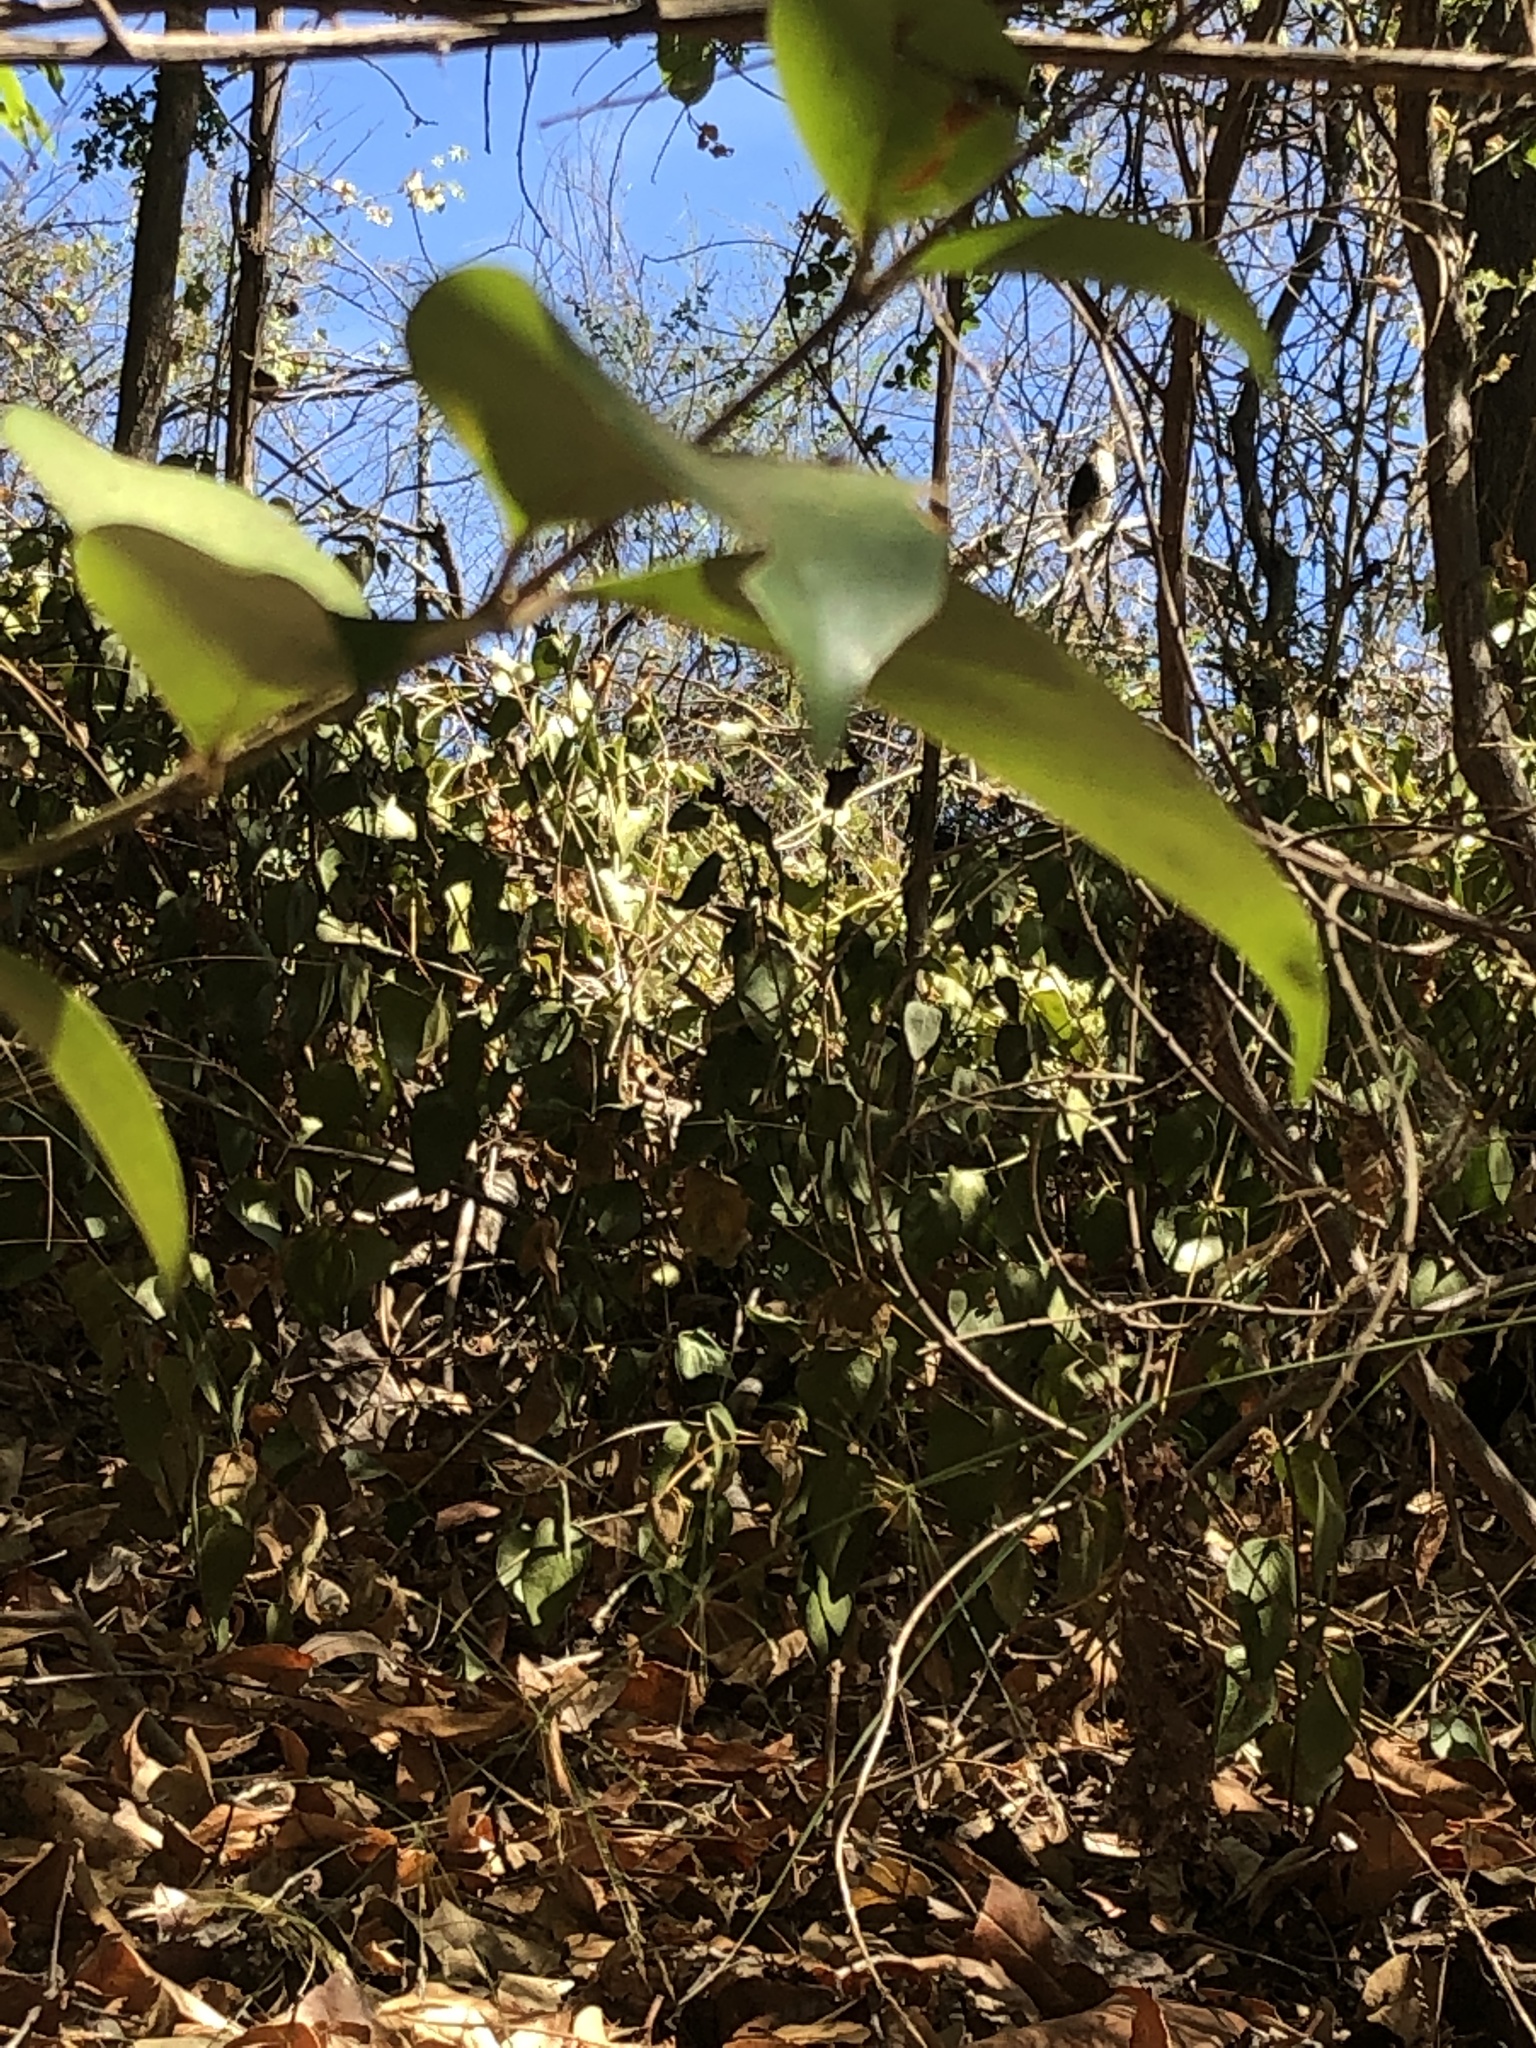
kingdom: Animalia
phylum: Chordata
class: Aves
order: Accipitriformes
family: Accipitridae
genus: Accipiter
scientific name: Accipiter cooperii
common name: Cooper's hawk
